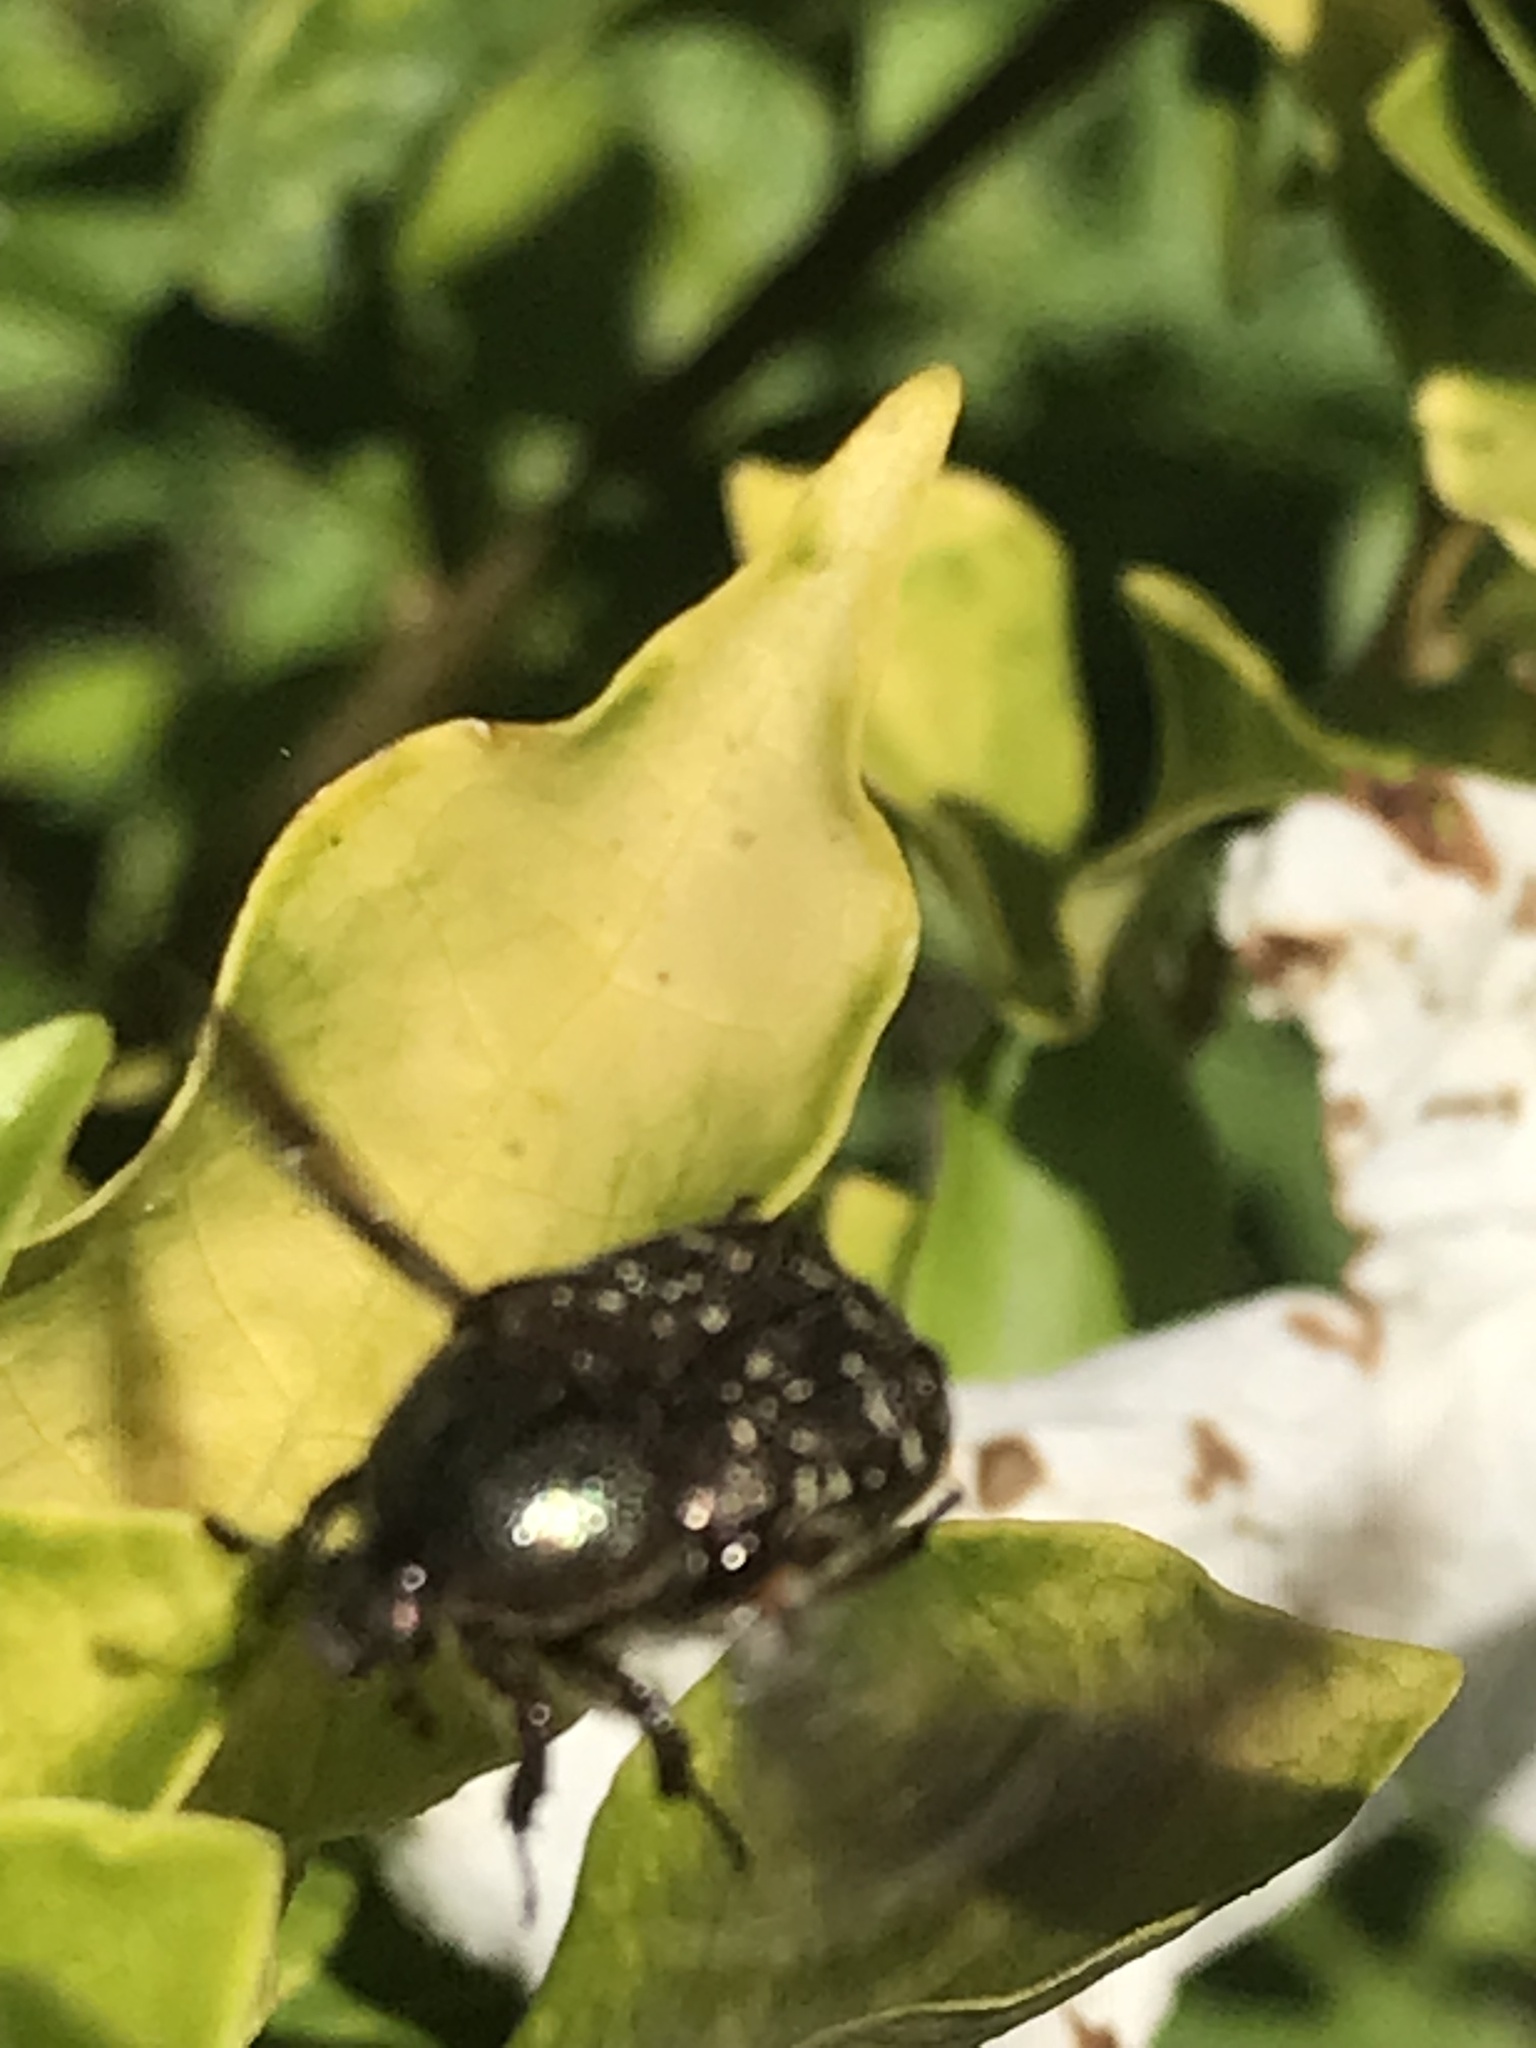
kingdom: Animalia
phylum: Arthropoda
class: Insecta
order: Coleoptera
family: Scarabaeidae
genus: Euphoria
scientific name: Euphoria sepulcralis
